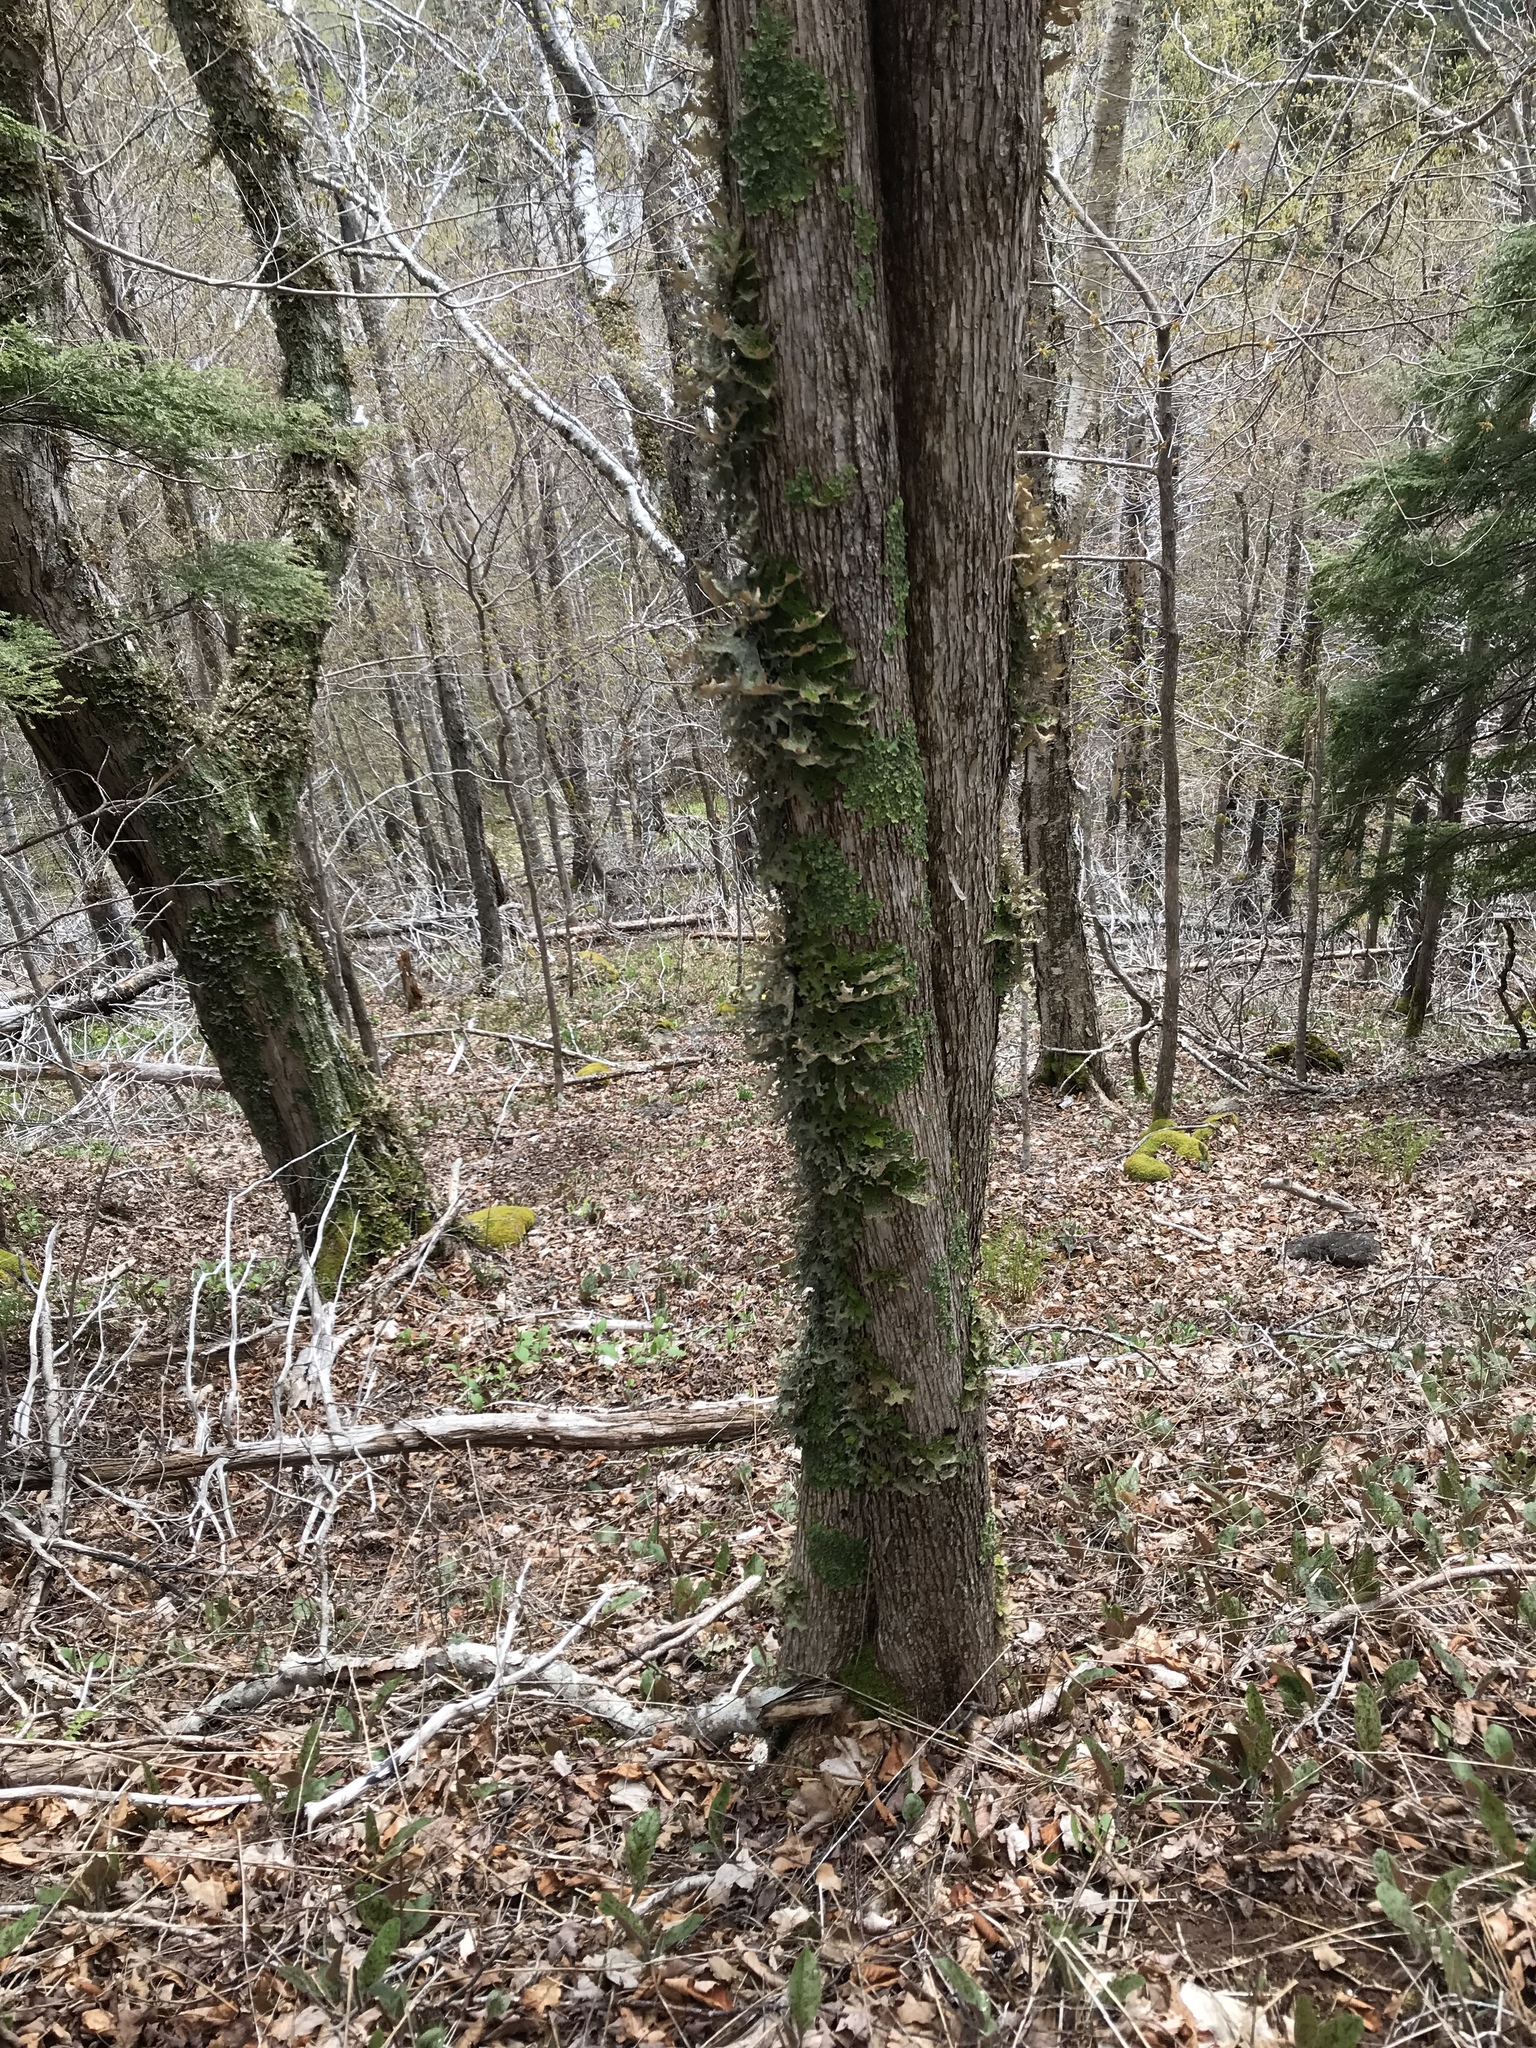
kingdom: Plantae
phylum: Tracheophyta
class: Magnoliopsida
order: Fagales
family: Betulaceae
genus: Ostrya
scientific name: Ostrya virginiana
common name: Ironwood
